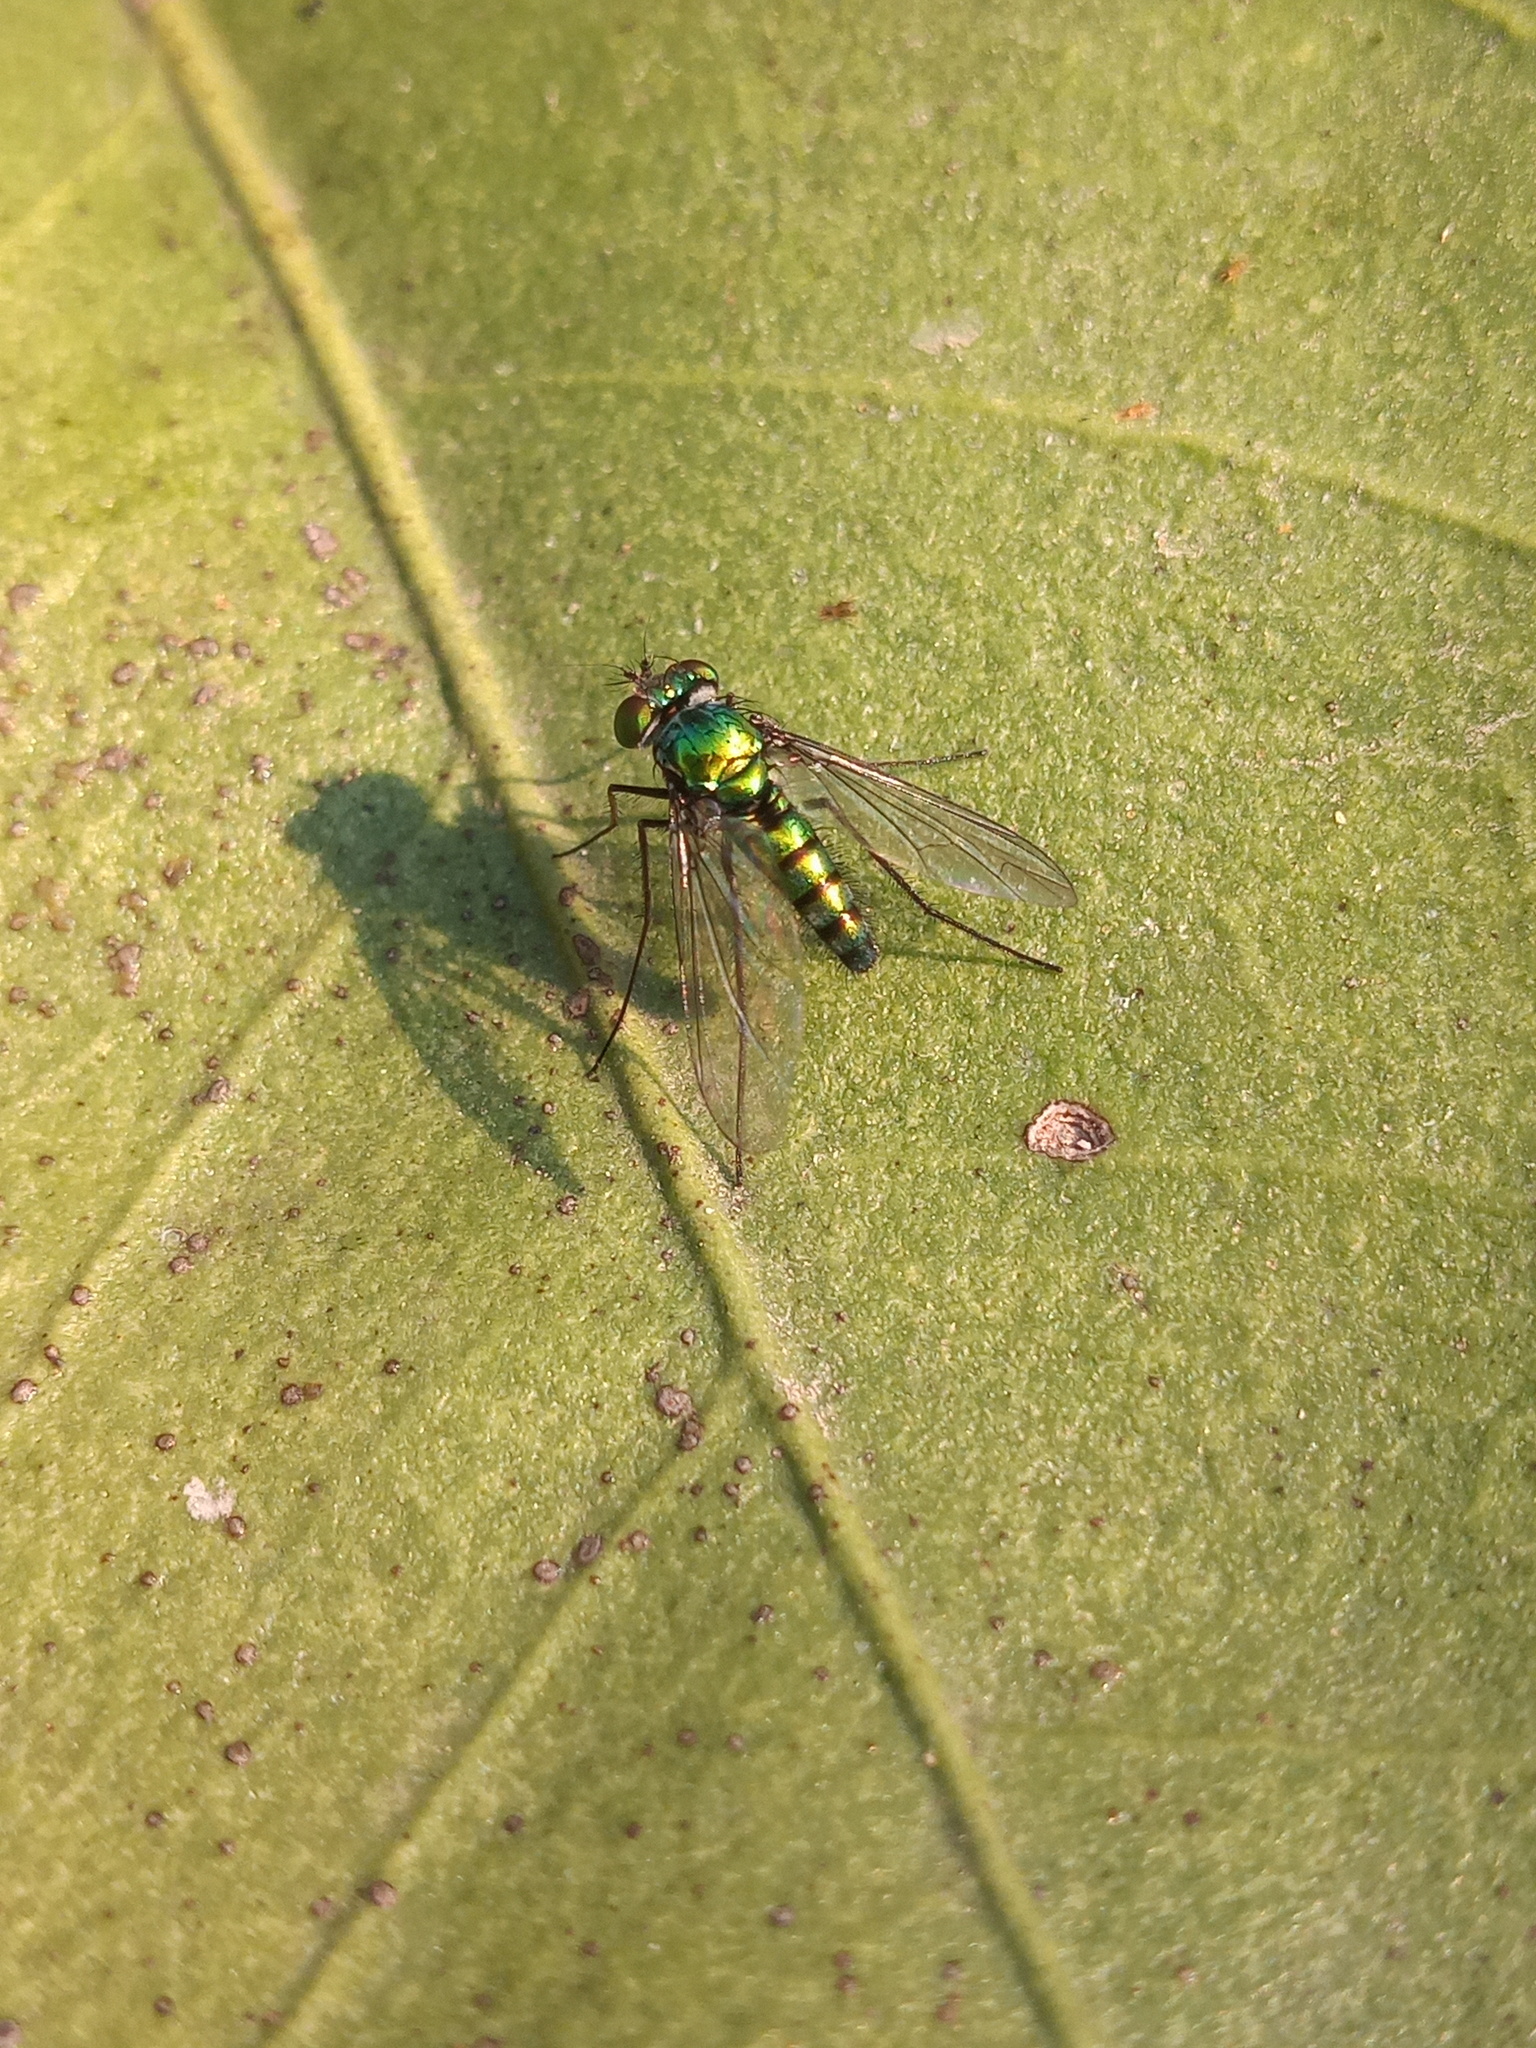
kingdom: Animalia
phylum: Arthropoda
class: Insecta
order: Diptera
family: Dolichopodidae
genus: Condylostylus
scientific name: Condylostylus longicornis
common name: Long-legged fly
